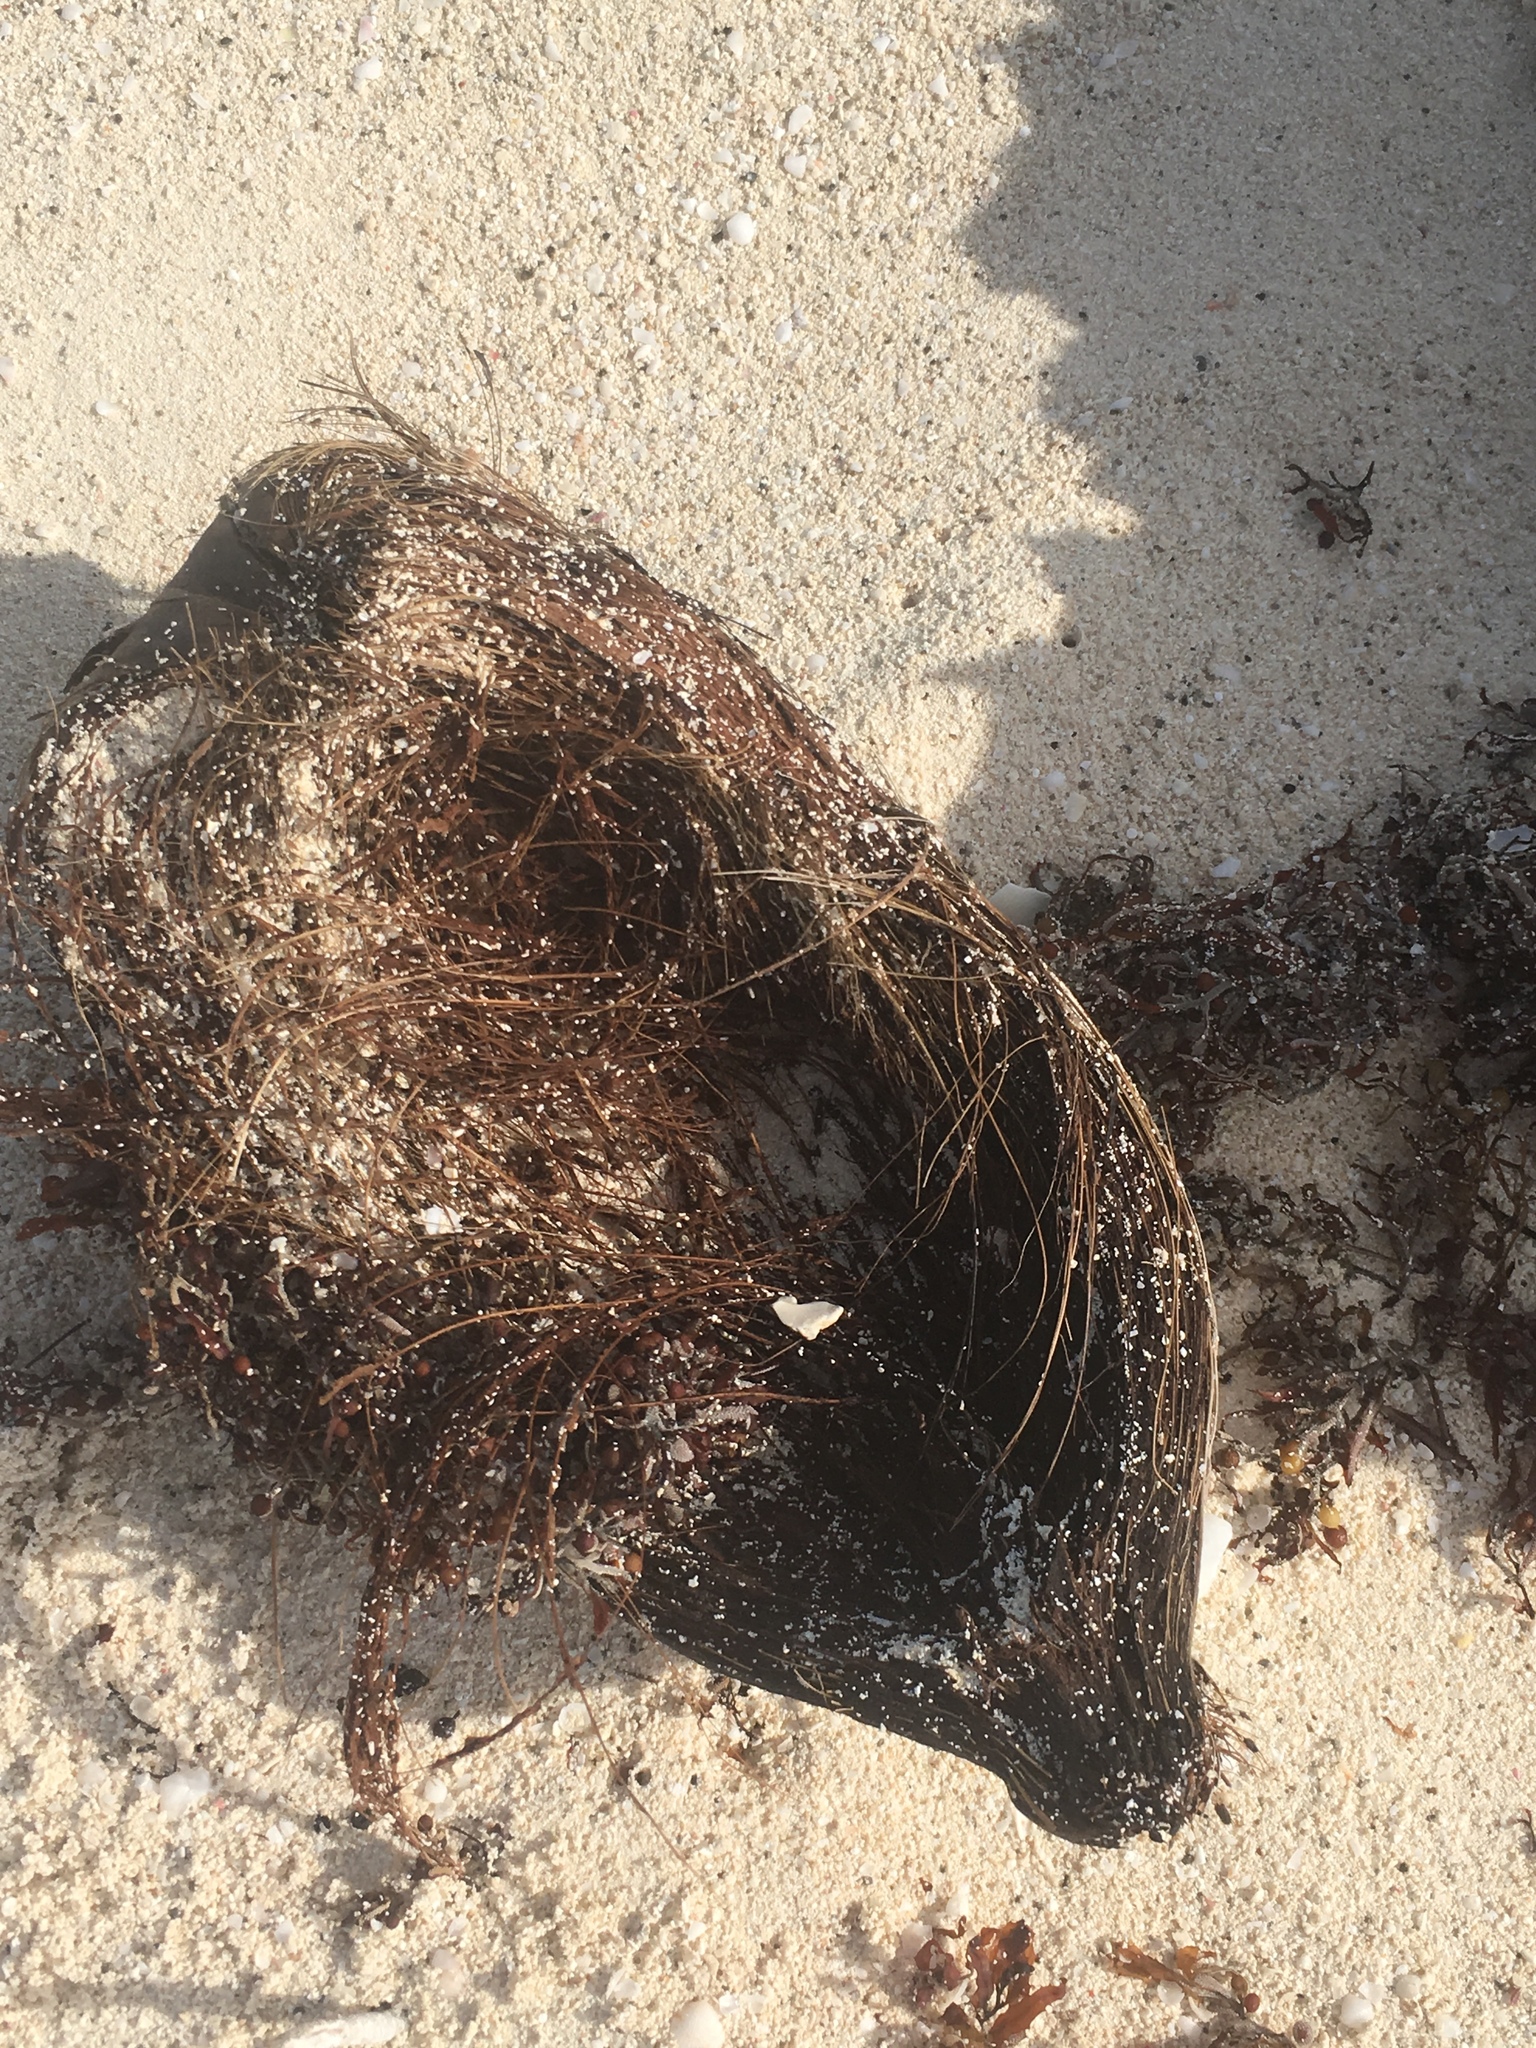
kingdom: Plantae
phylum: Tracheophyta
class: Liliopsida
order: Arecales
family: Arecaceae
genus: Cocos
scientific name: Cocos nucifera
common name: Coconut palm
